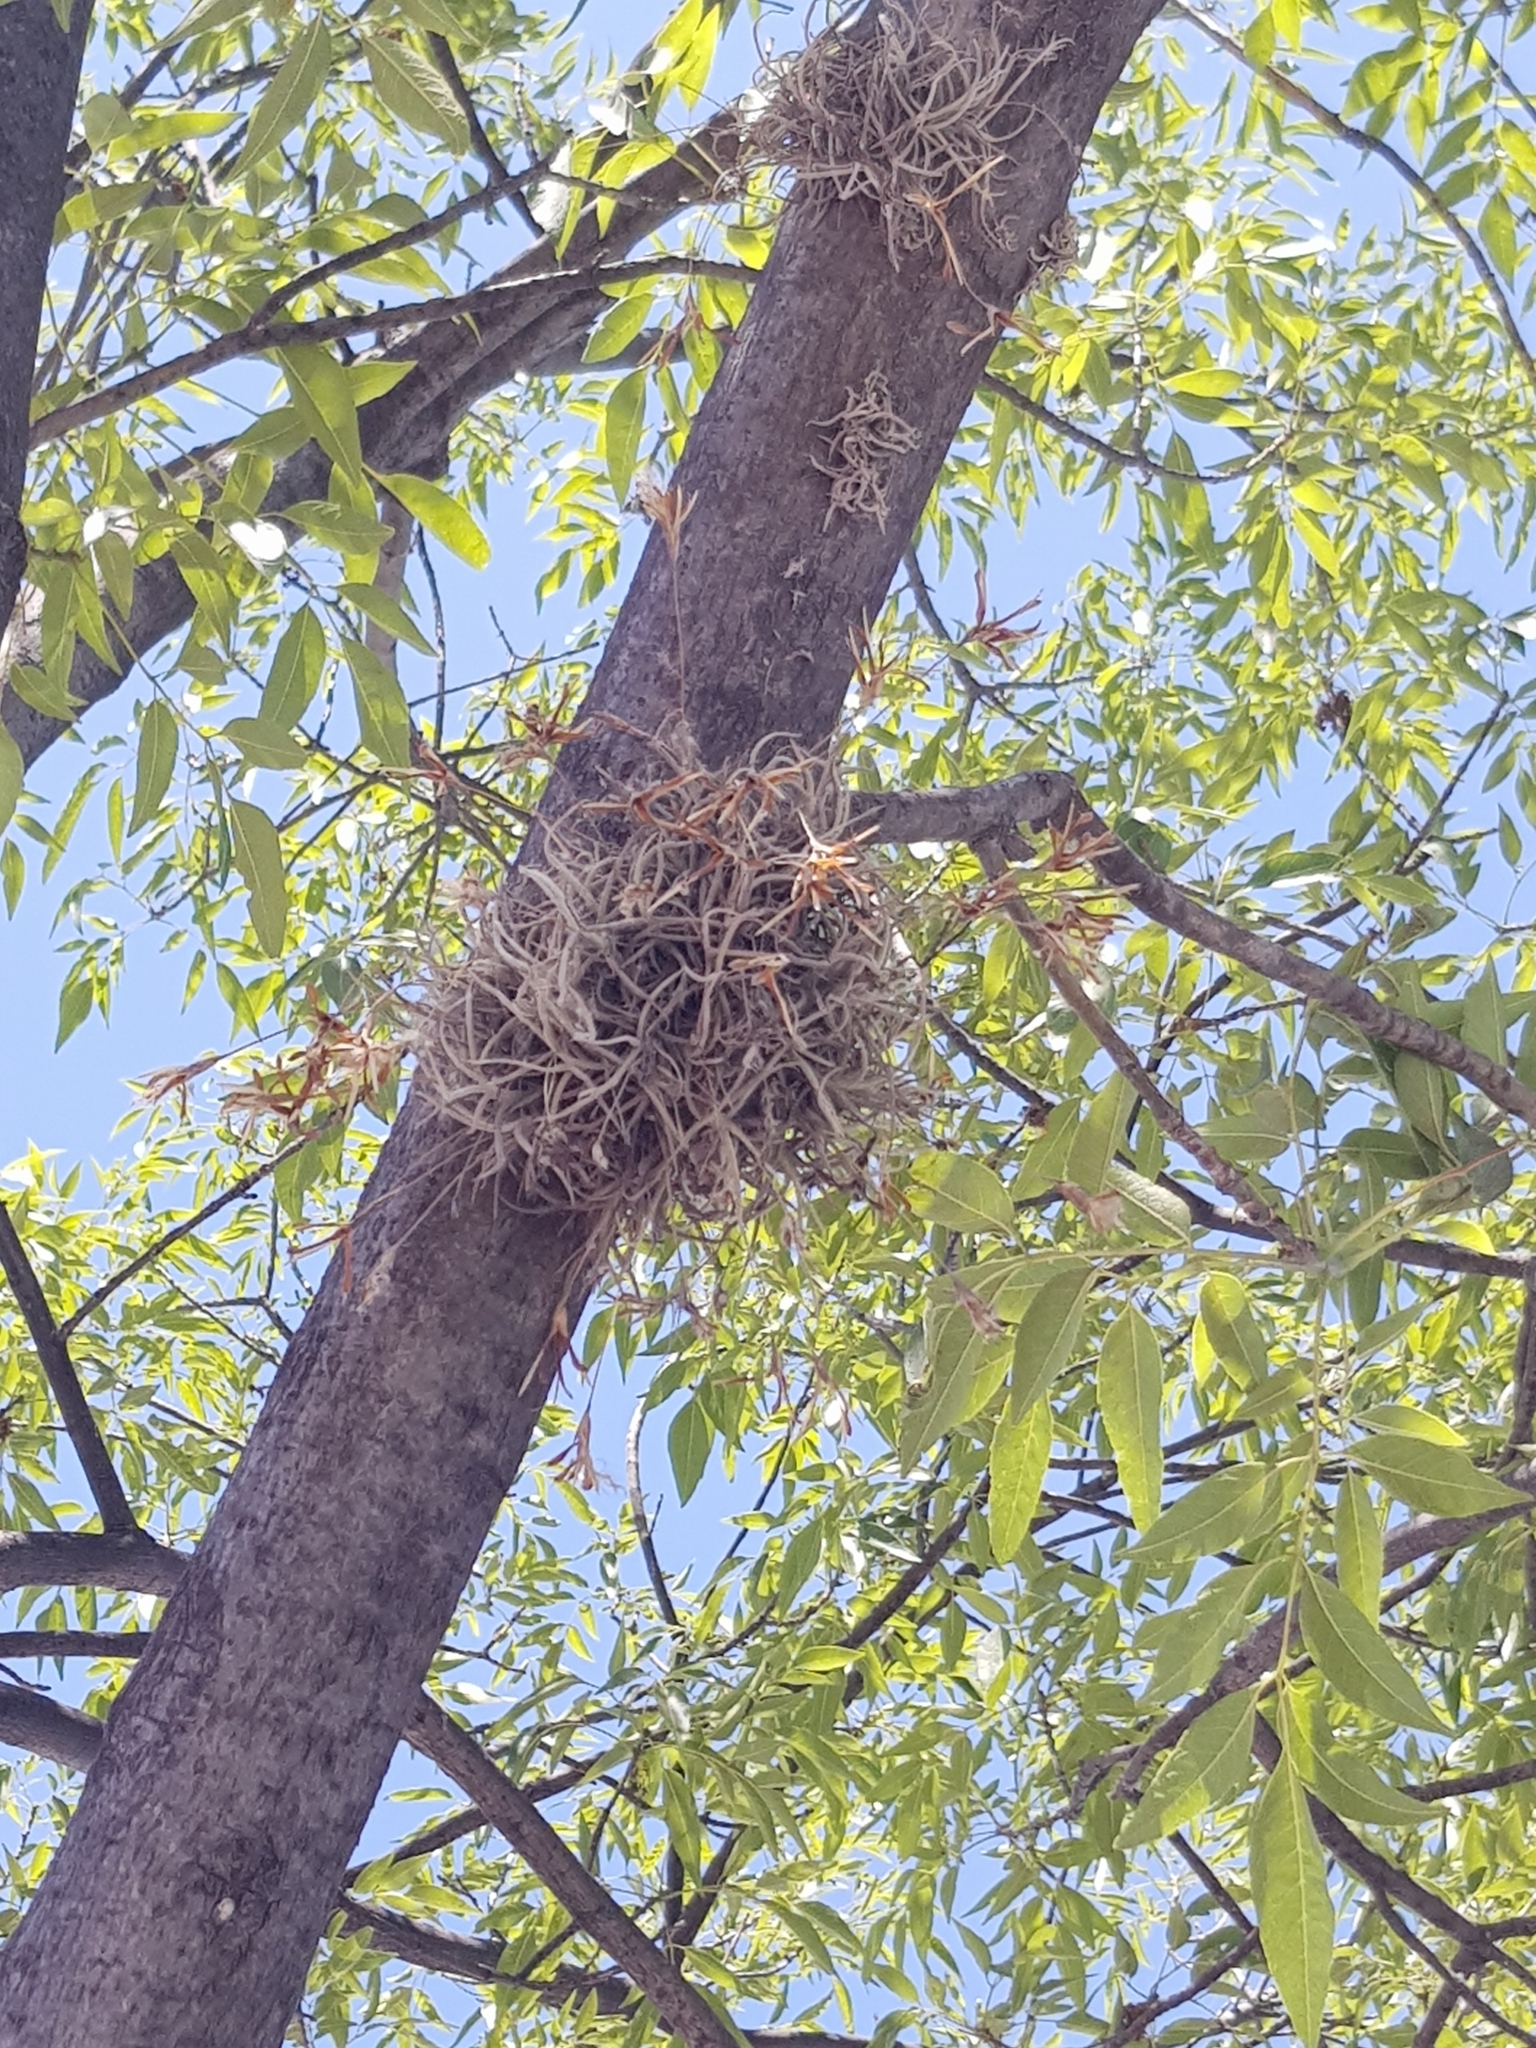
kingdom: Plantae
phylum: Tracheophyta
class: Liliopsida
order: Poales
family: Bromeliaceae
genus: Tillandsia
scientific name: Tillandsia recurvata
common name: Small ballmoss
